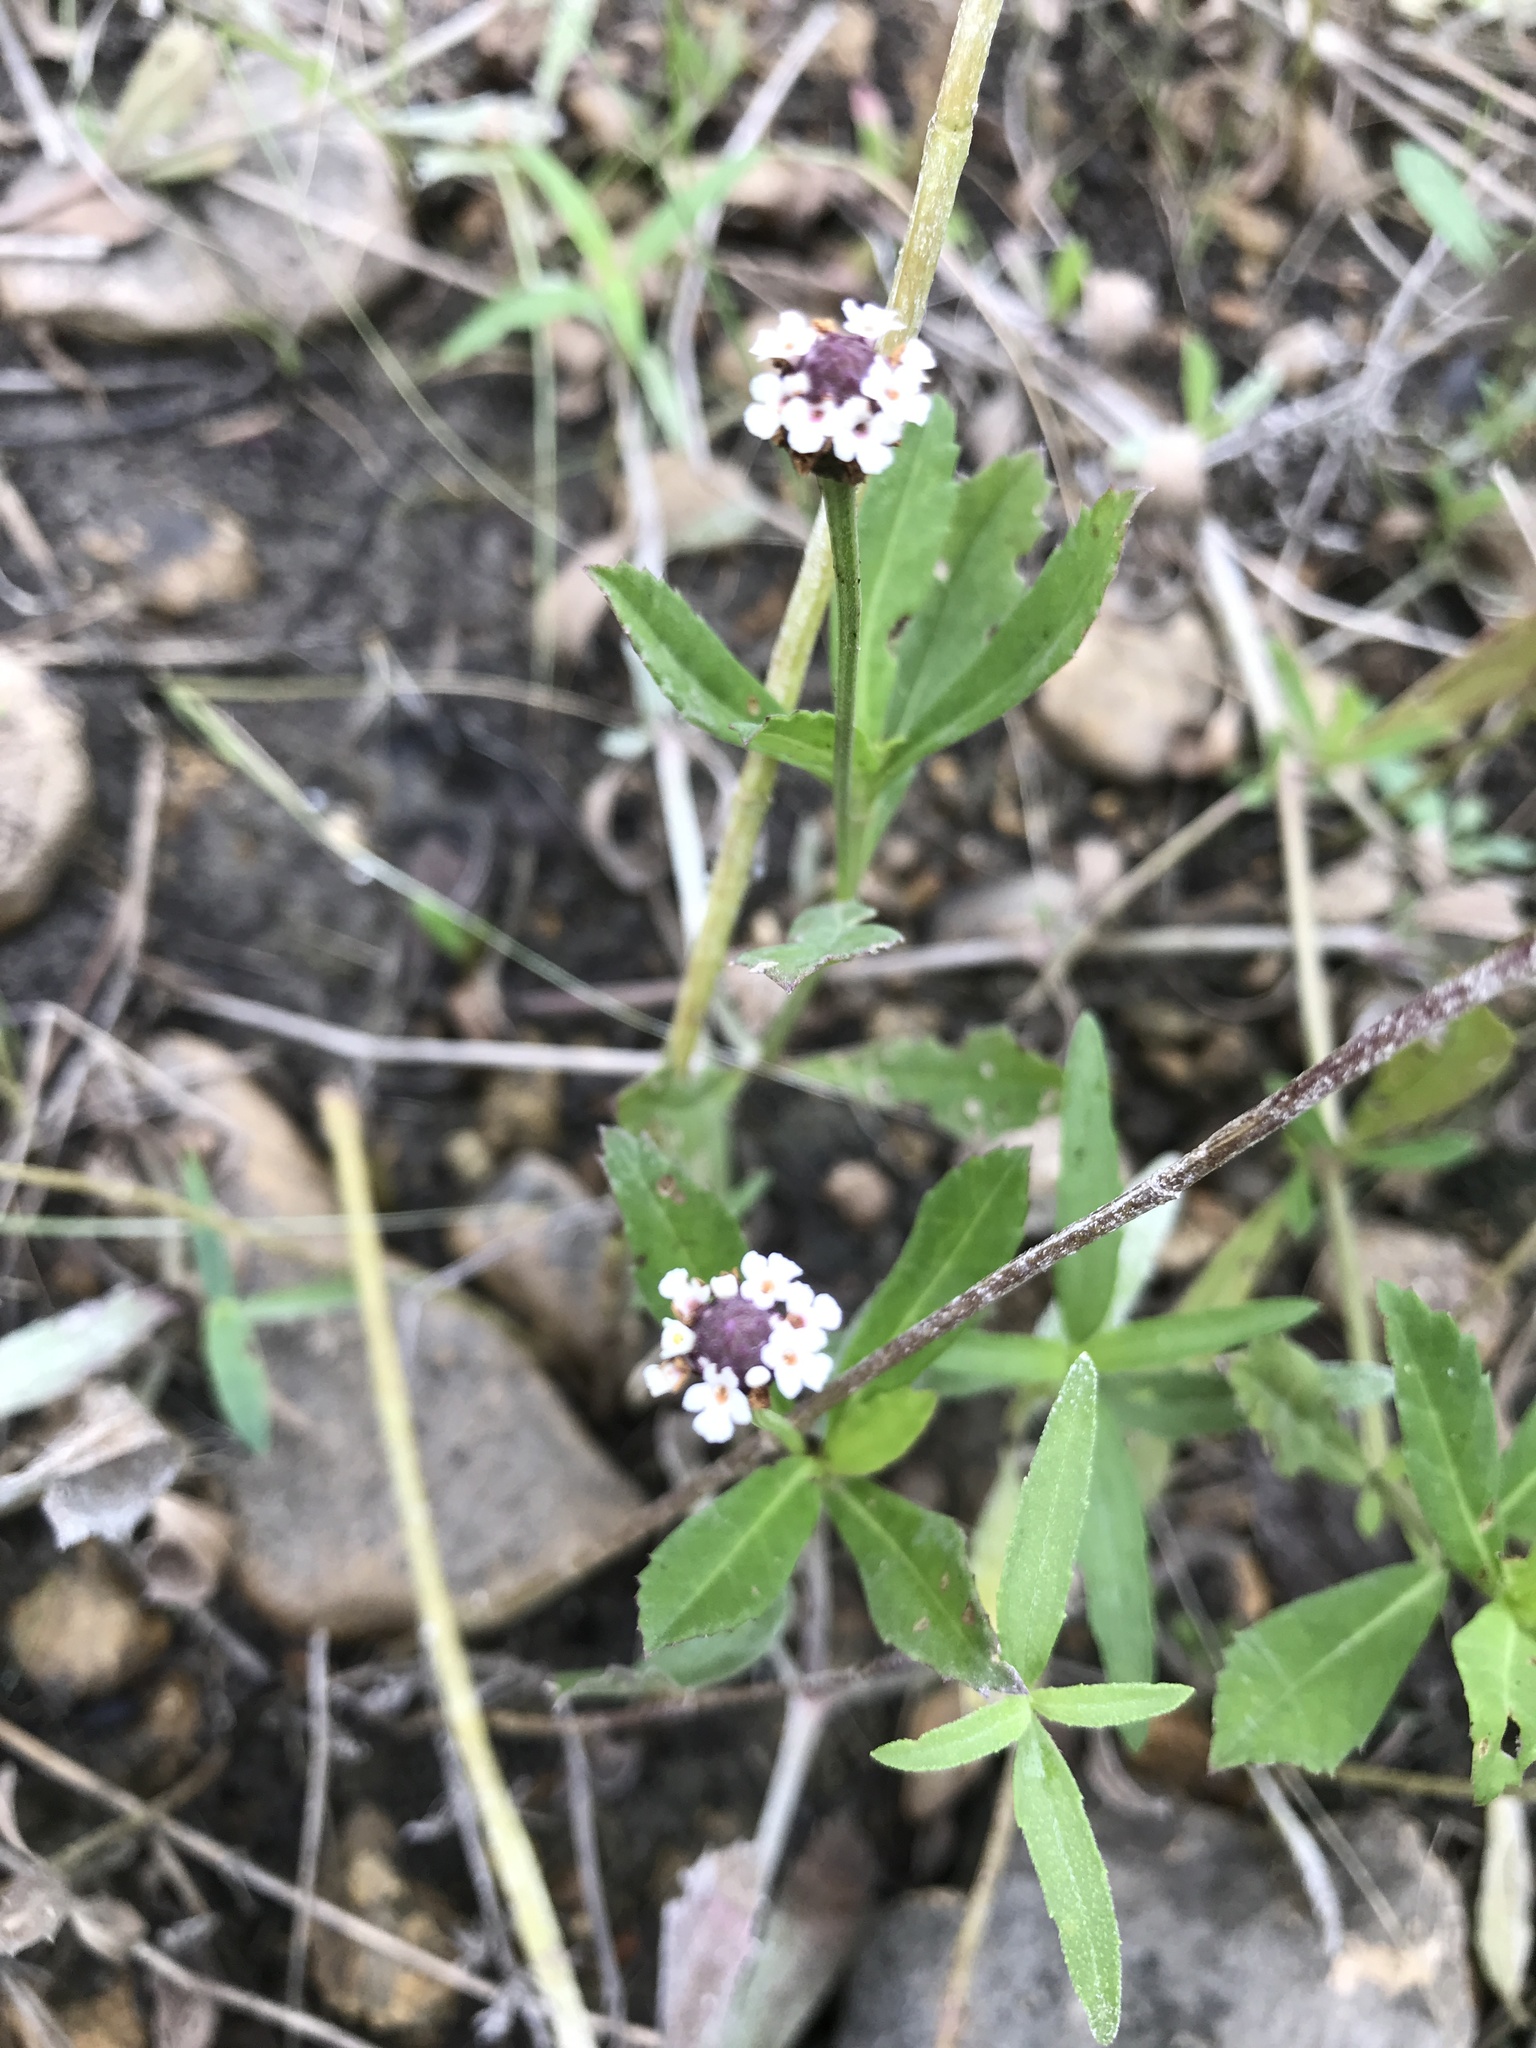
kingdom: Plantae
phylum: Tracheophyta
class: Magnoliopsida
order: Lamiales
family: Verbenaceae
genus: Phyla
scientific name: Phyla nodiflora
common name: Frogfruit
